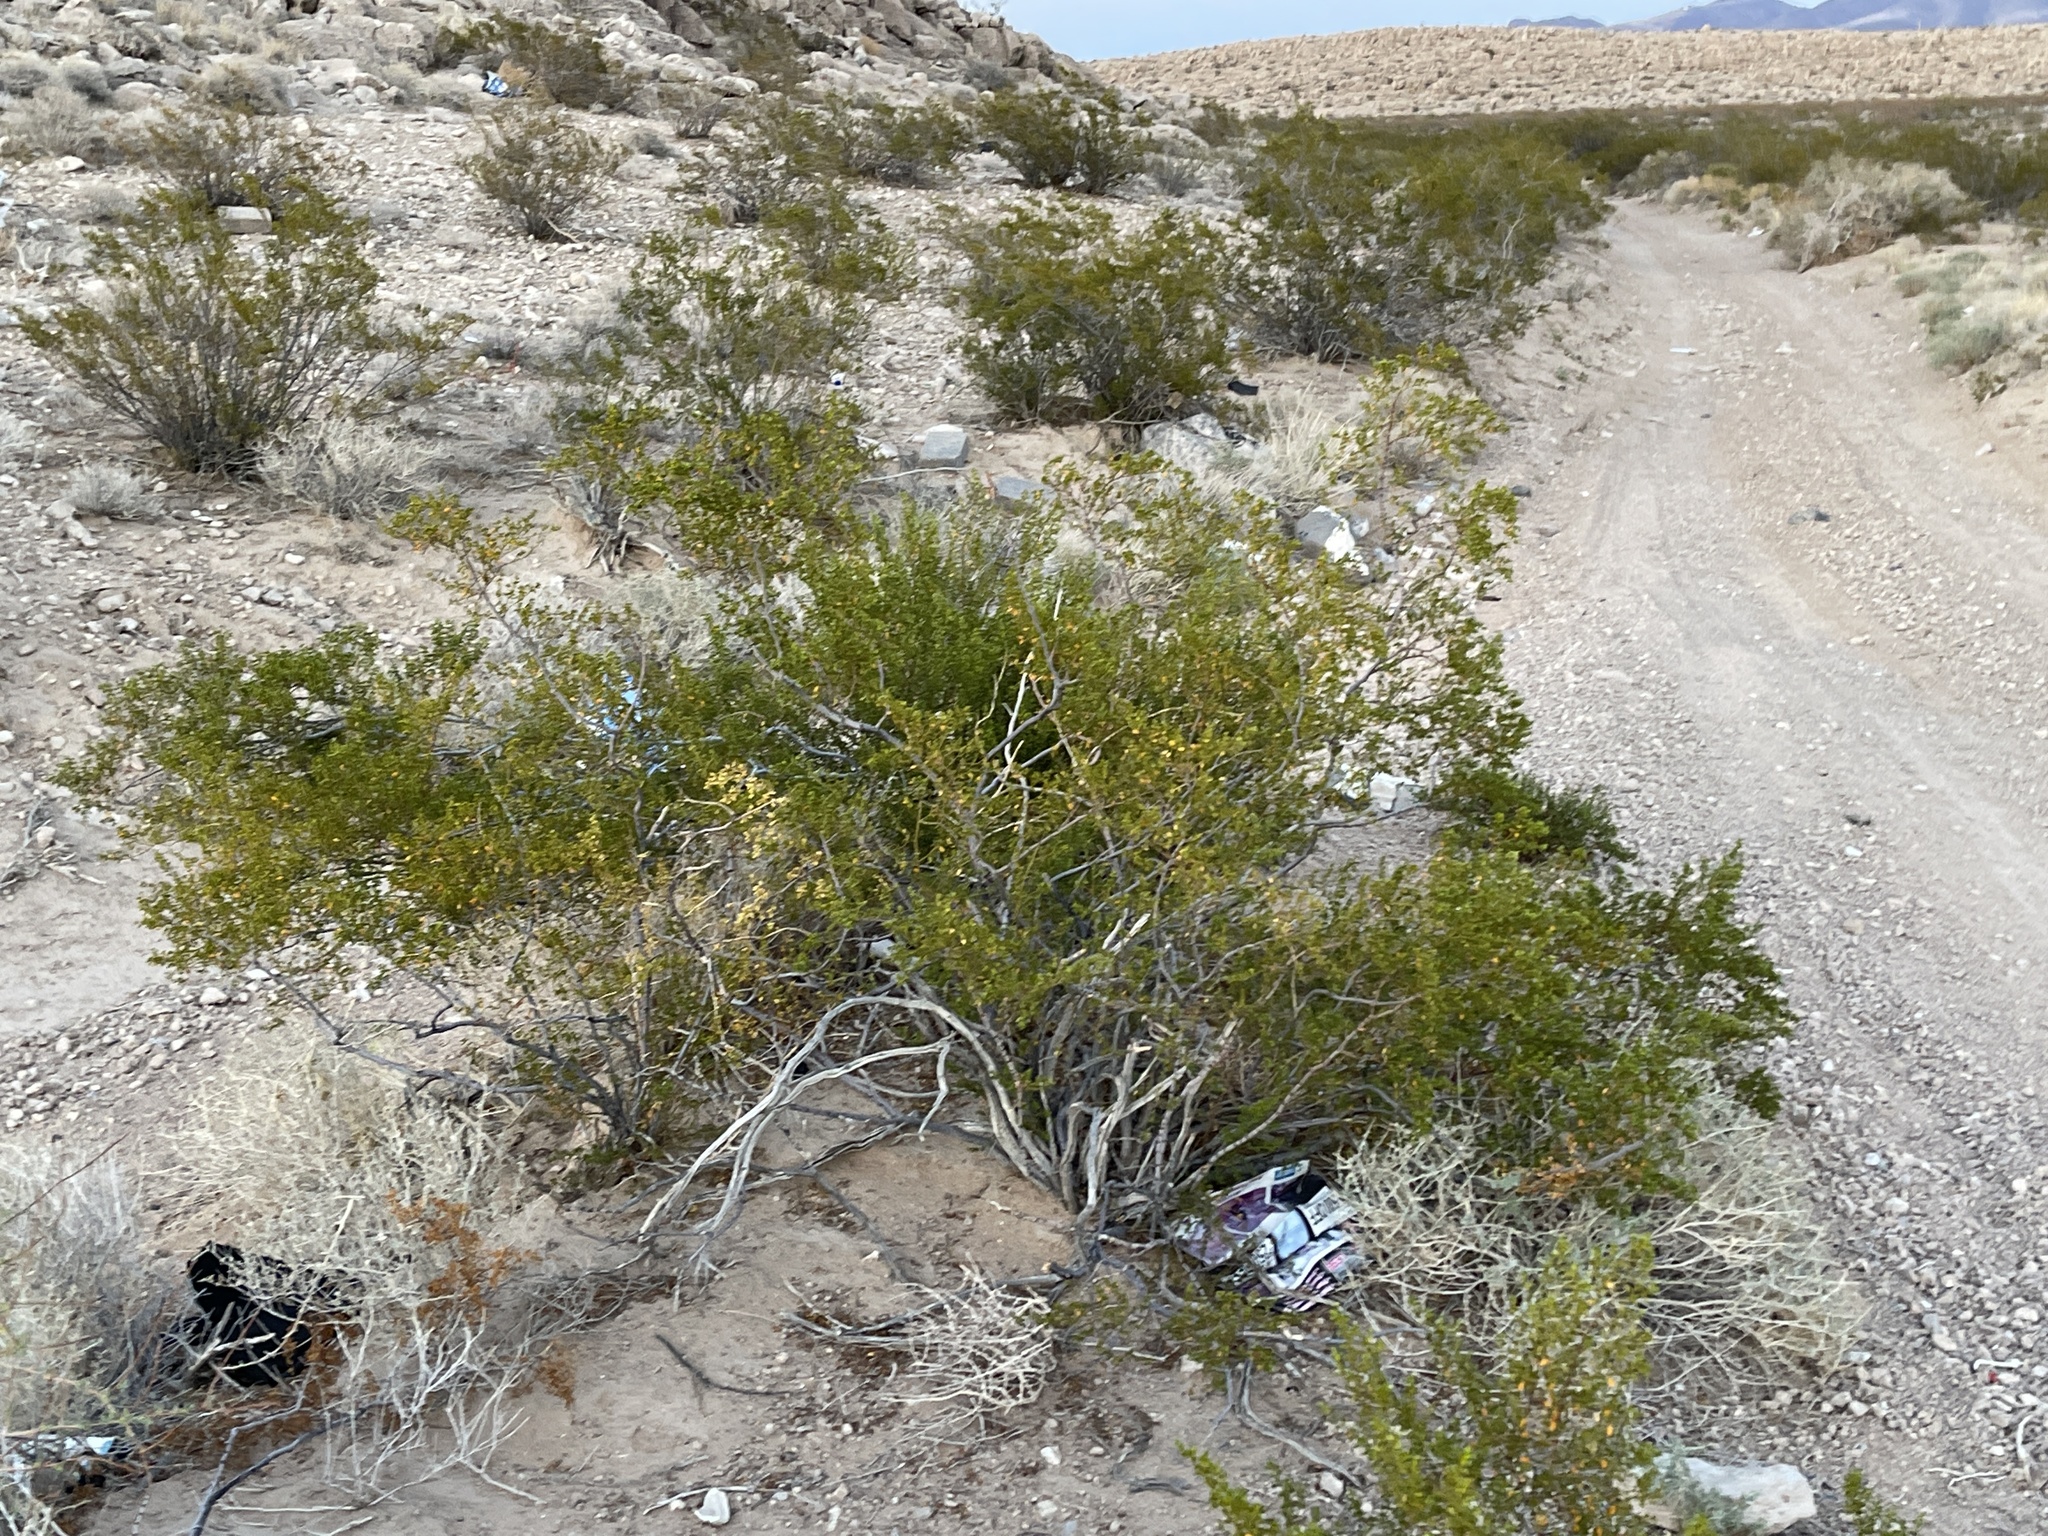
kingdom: Plantae
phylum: Tracheophyta
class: Magnoliopsida
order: Zygophyllales
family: Zygophyllaceae
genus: Larrea
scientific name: Larrea tridentata
